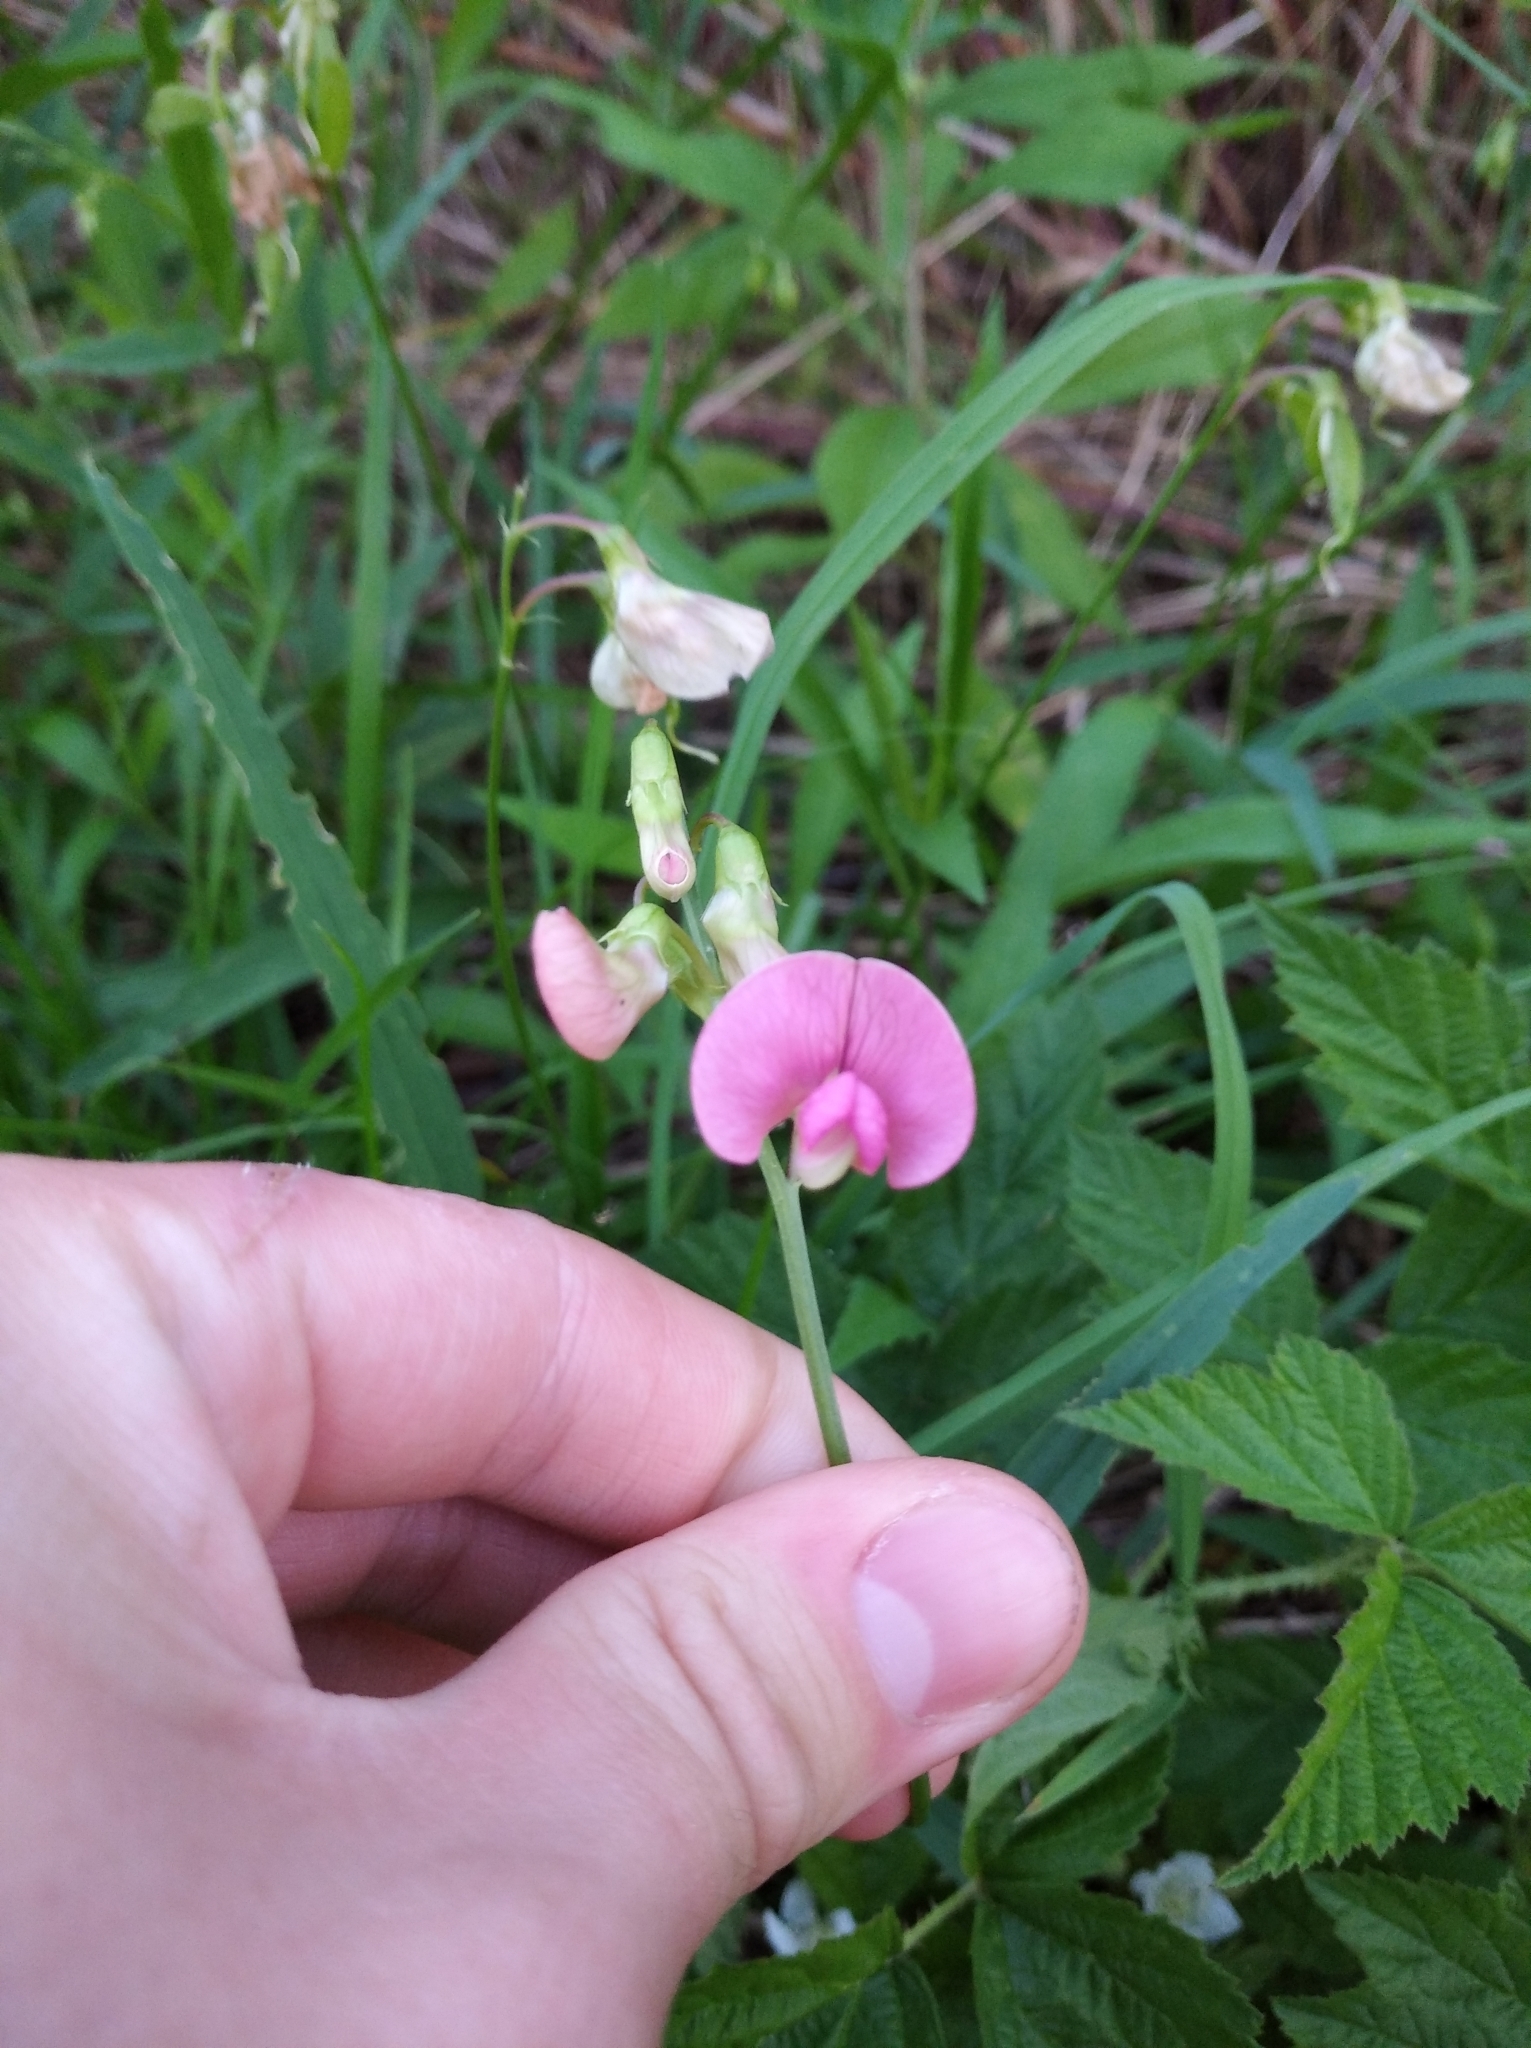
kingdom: Plantae
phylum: Tracheophyta
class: Magnoliopsida
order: Fabales
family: Fabaceae
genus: Lathyrus
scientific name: Lathyrus sylvestris
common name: Flat pea
